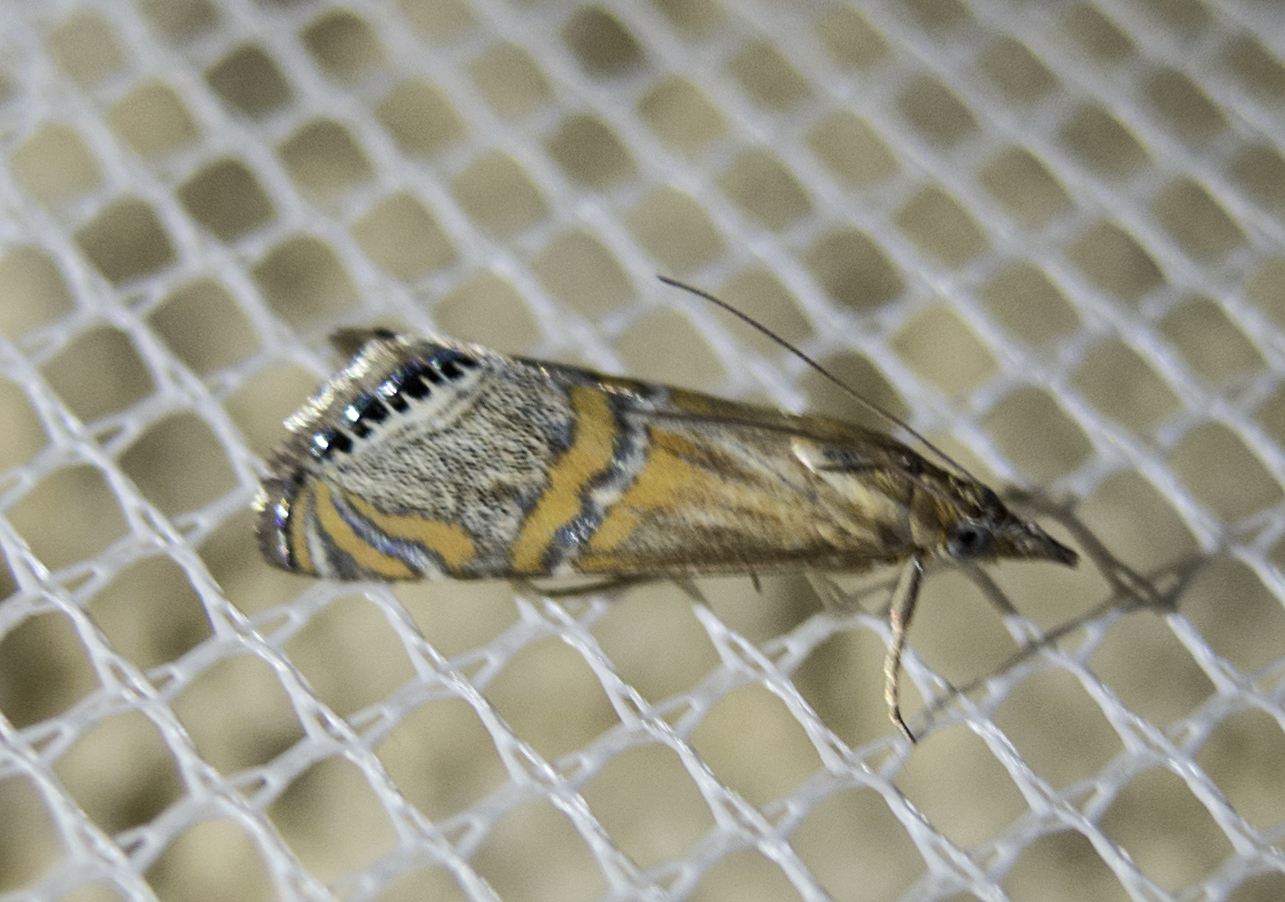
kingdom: Animalia
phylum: Arthropoda
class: Insecta
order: Lepidoptera
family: Crambidae
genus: Euchromius
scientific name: Euchromius bella
